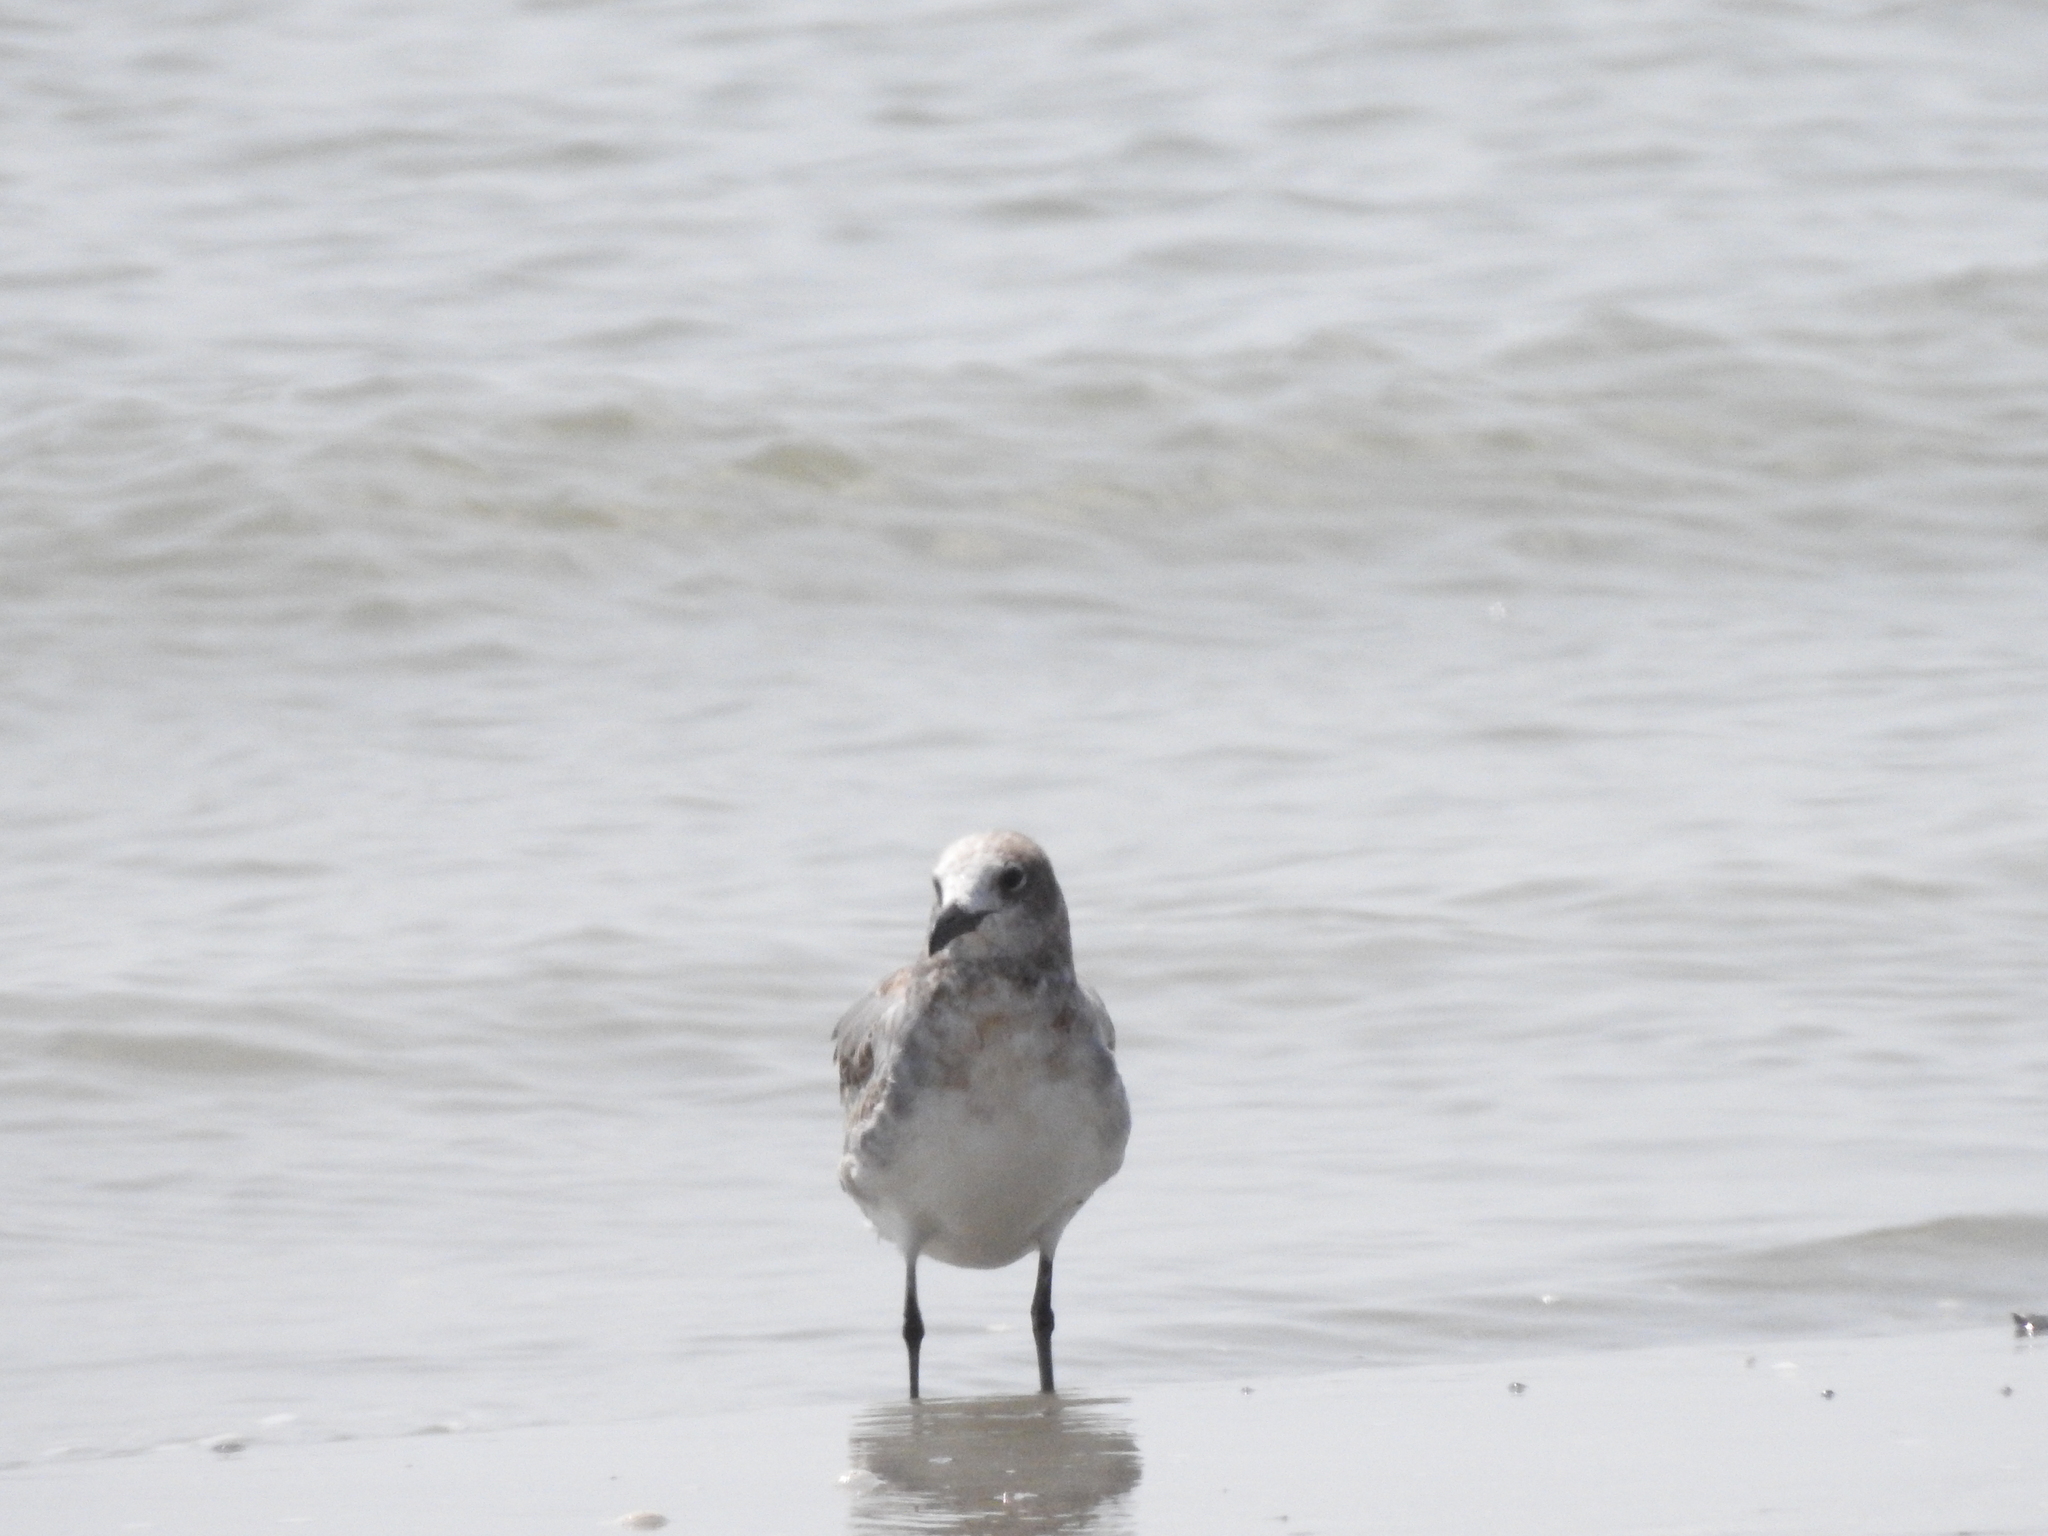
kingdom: Animalia
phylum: Chordata
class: Aves
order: Charadriiformes
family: Laridae
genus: Leucophaeus
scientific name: Leucophaeus atricilla
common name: Laughing gull
